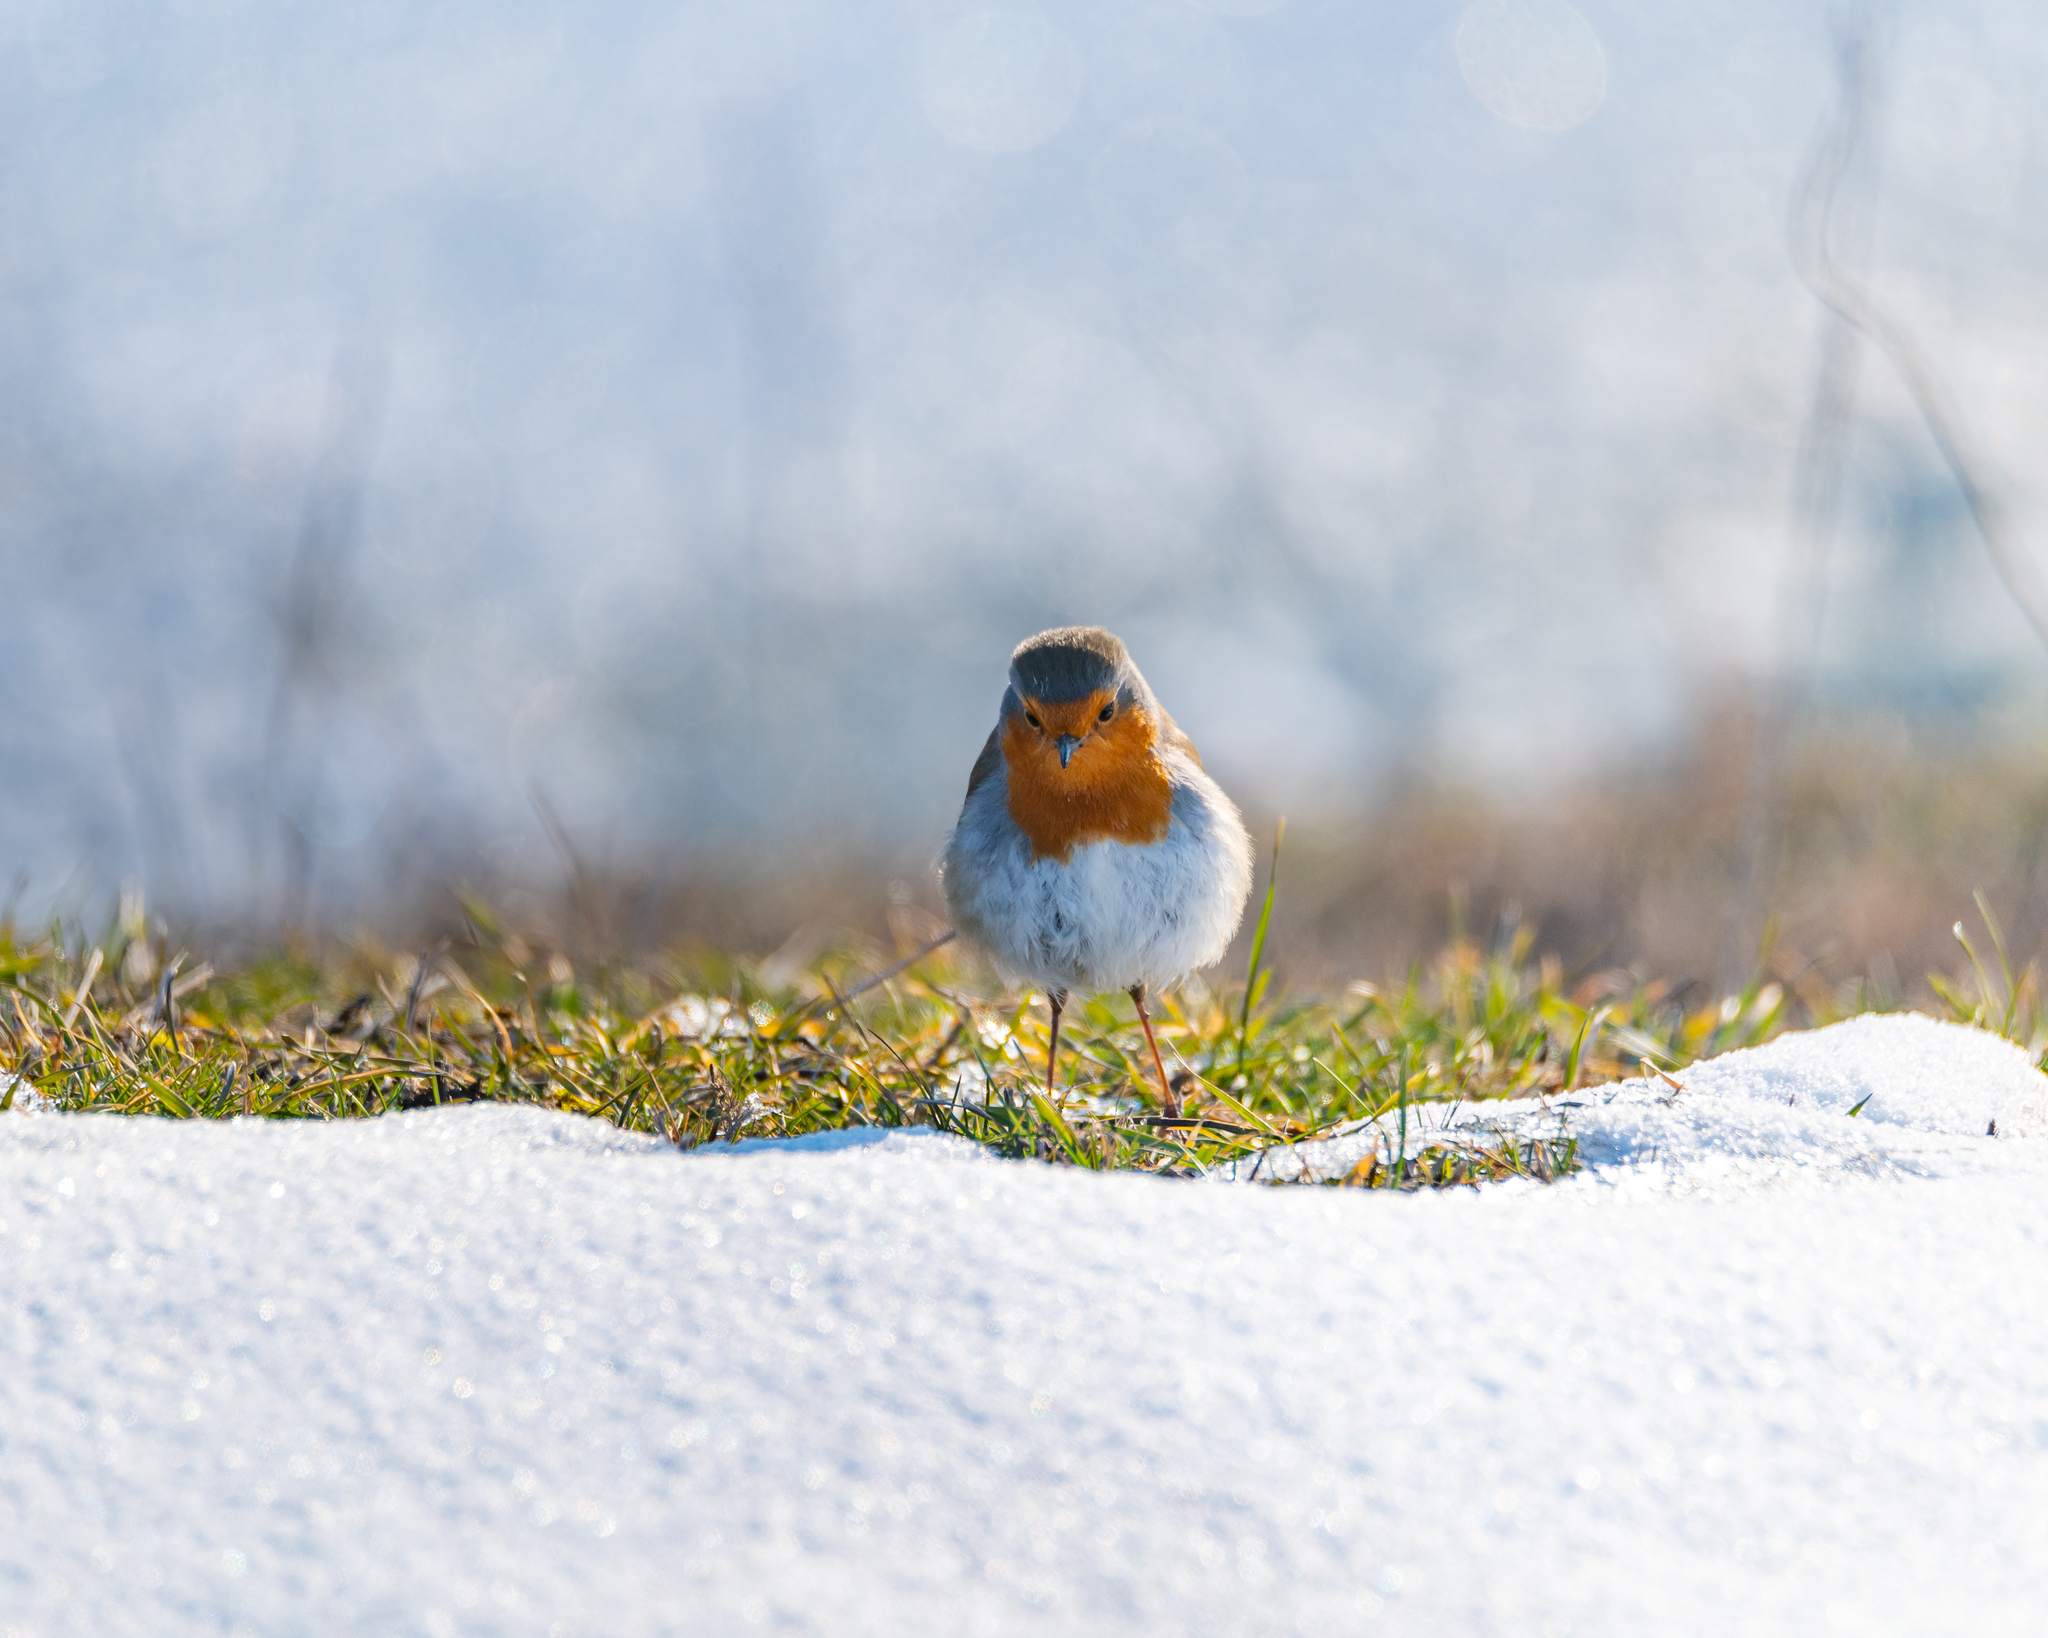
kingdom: Animalia
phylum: Chordata
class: Aves
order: Passeriformes
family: Muscicapidae
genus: Erithacus
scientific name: Erithacus rubecula
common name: European robin
